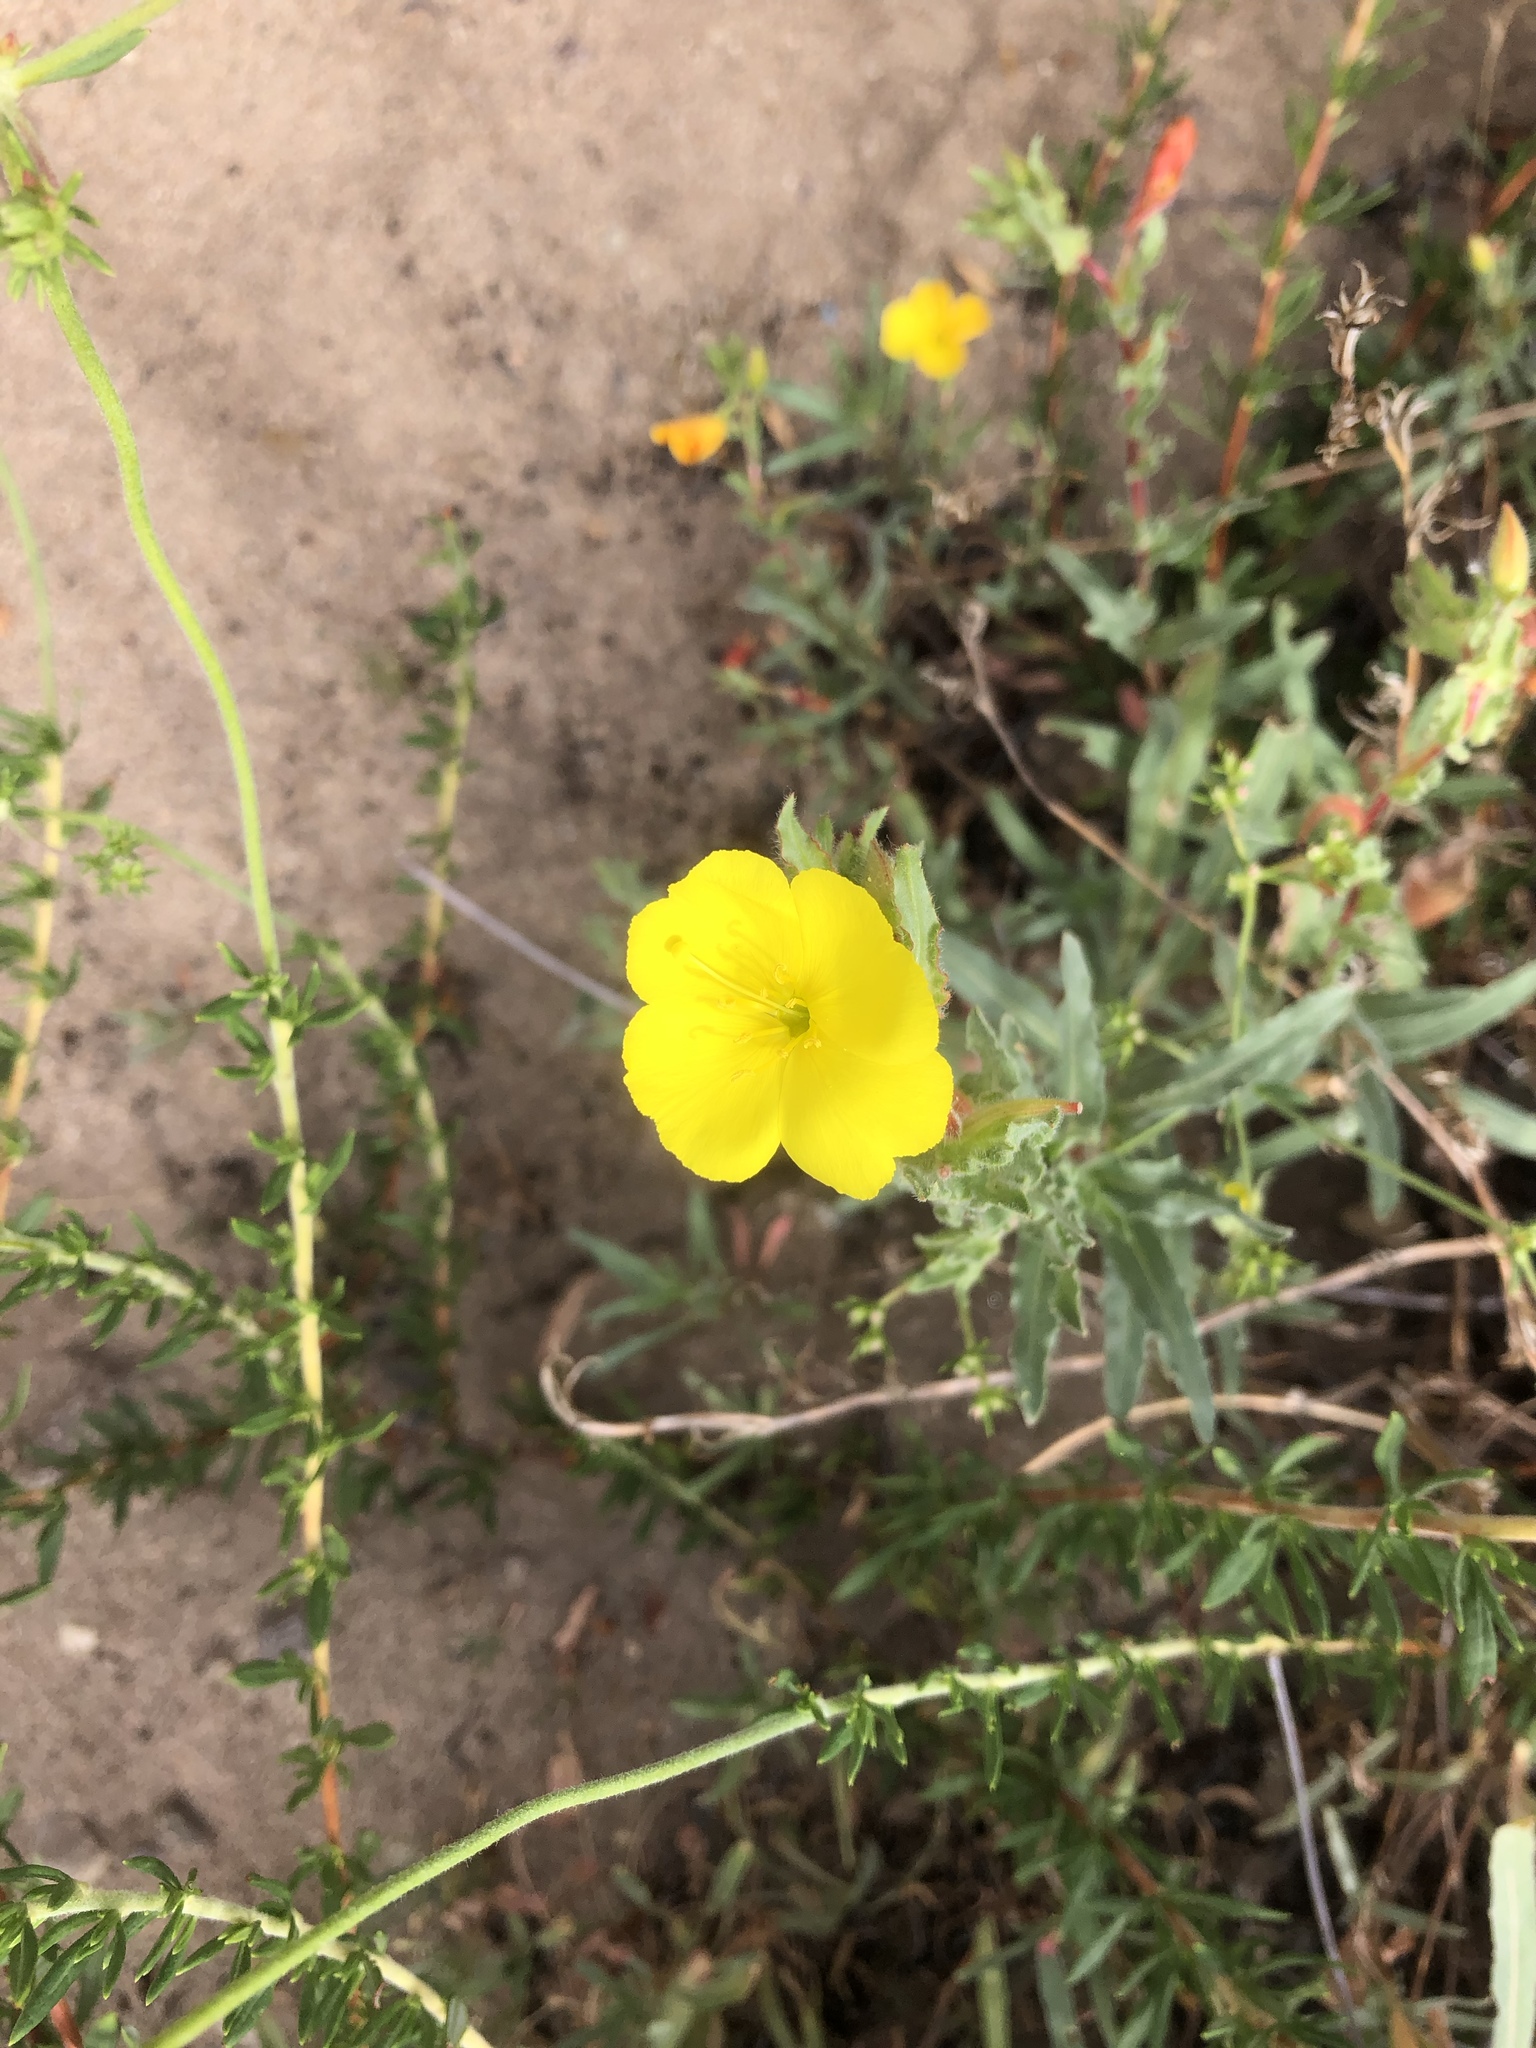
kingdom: Plantae
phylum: Tracheophyta
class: Magnoliopsida
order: Myrtales
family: Onagraceae
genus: Camissoniopsis
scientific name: Camissoniopsis bistorta
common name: Southern suncup
